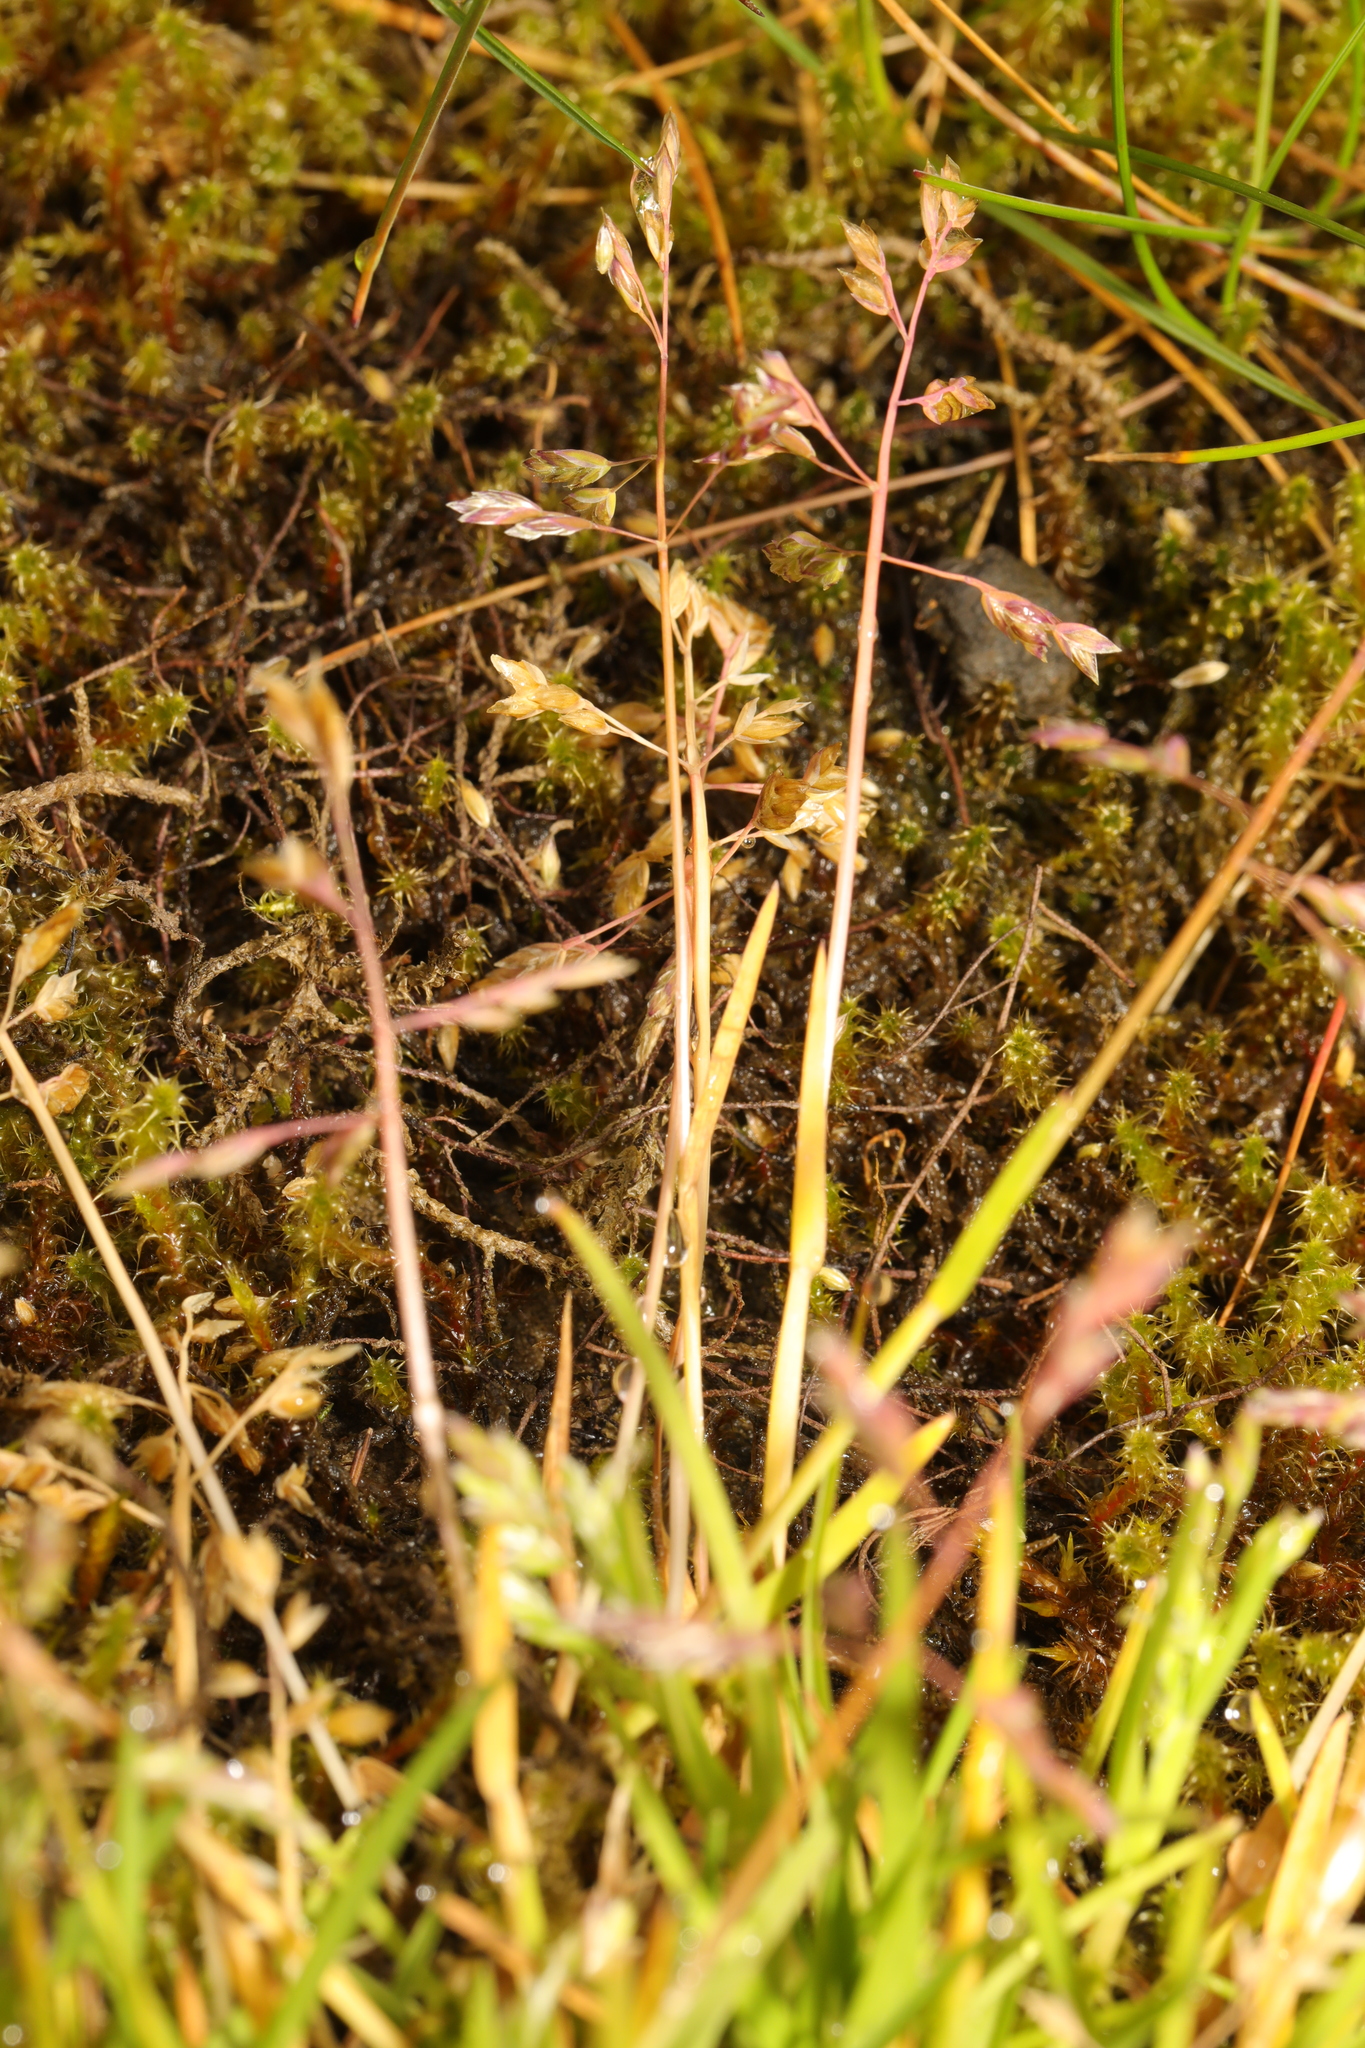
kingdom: Plantae
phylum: Tracheophyta
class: Liliopsida
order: Poales
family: Poaceae
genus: Poa
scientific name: Poa annua
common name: Annual bluegrass
